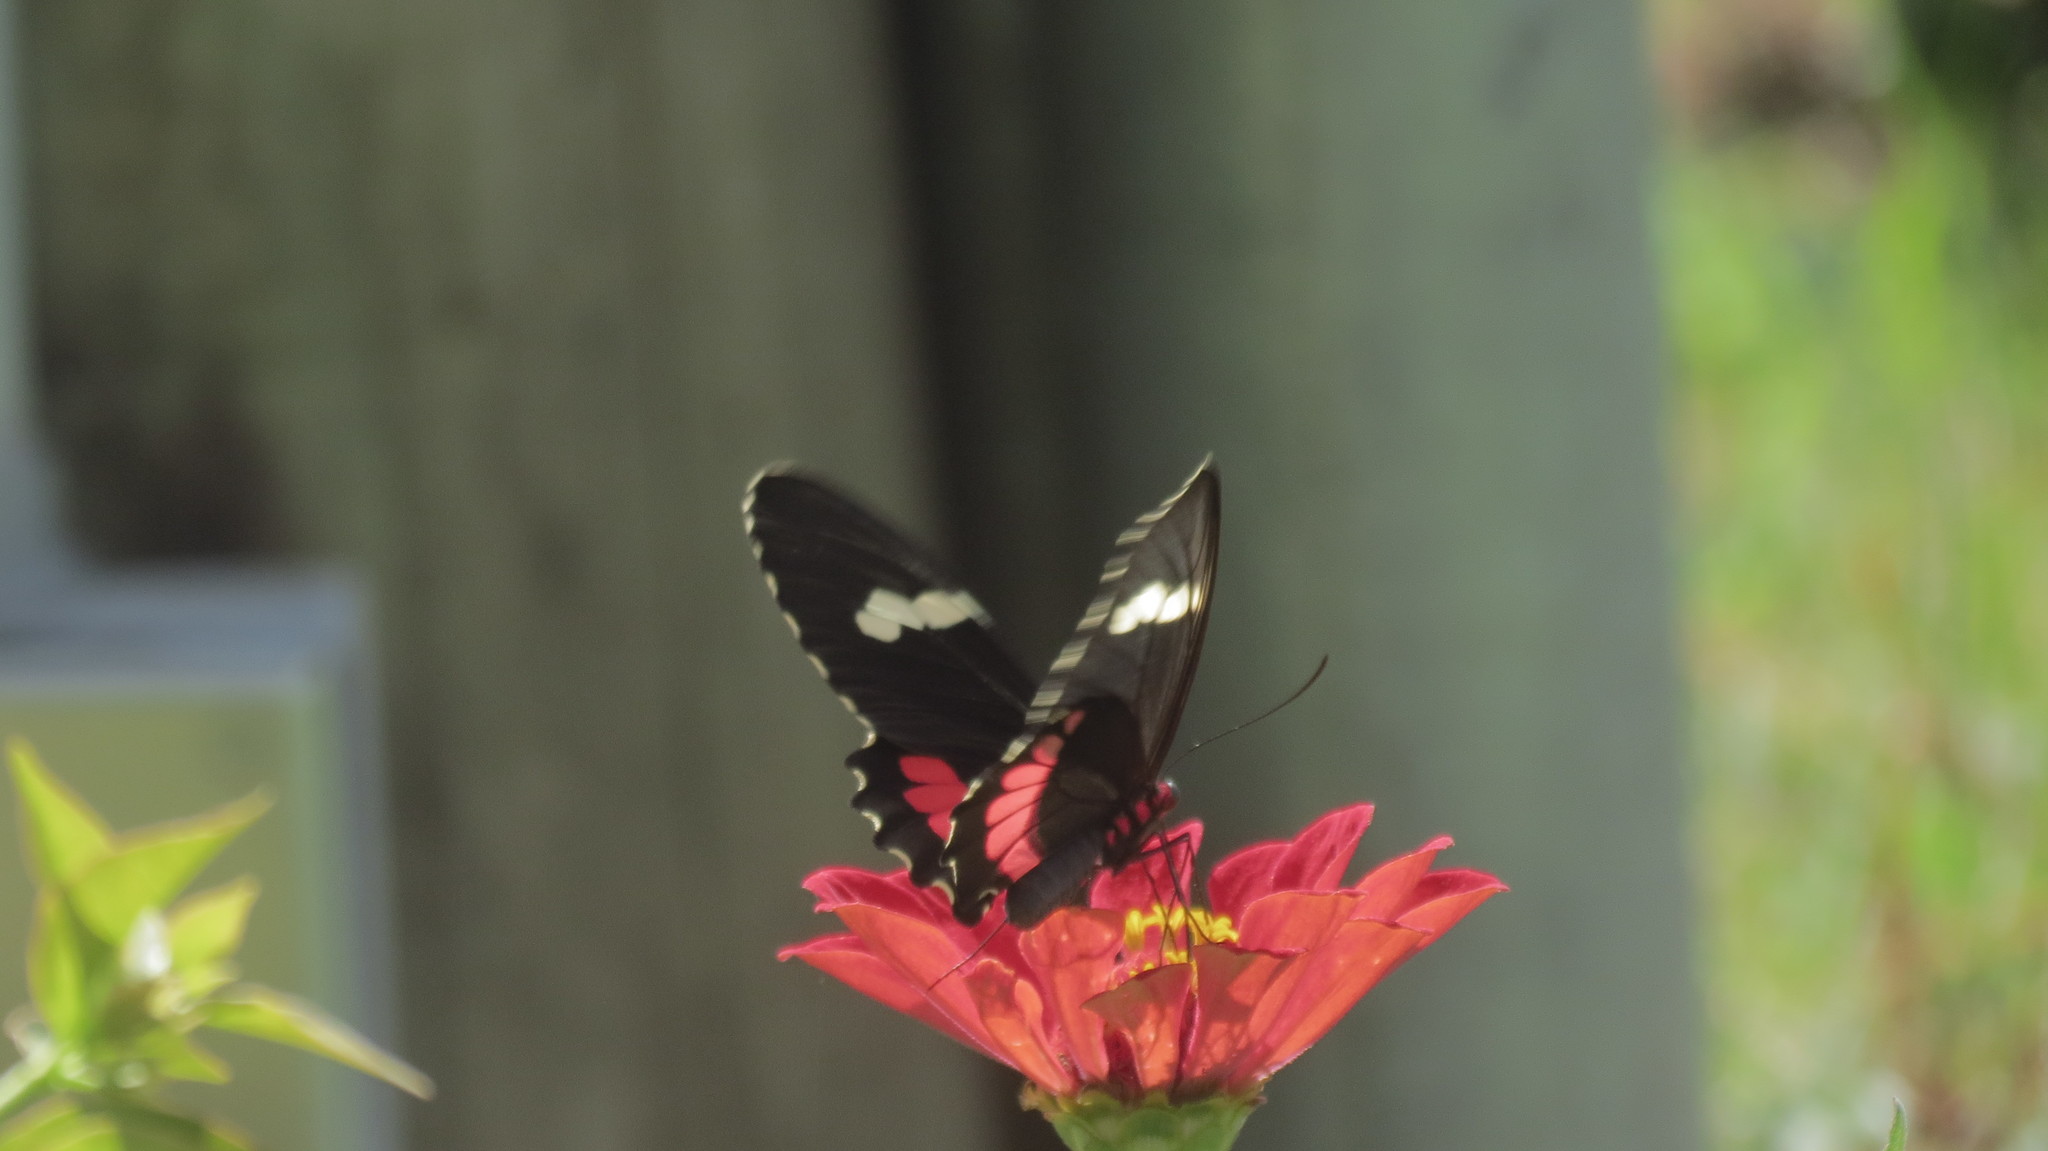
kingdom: Animalia
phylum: Arthropoda
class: Insecta
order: Lepidoptera
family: Papilionidae
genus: Parides
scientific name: Parides panares
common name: Wedge-spotted cattleheart
